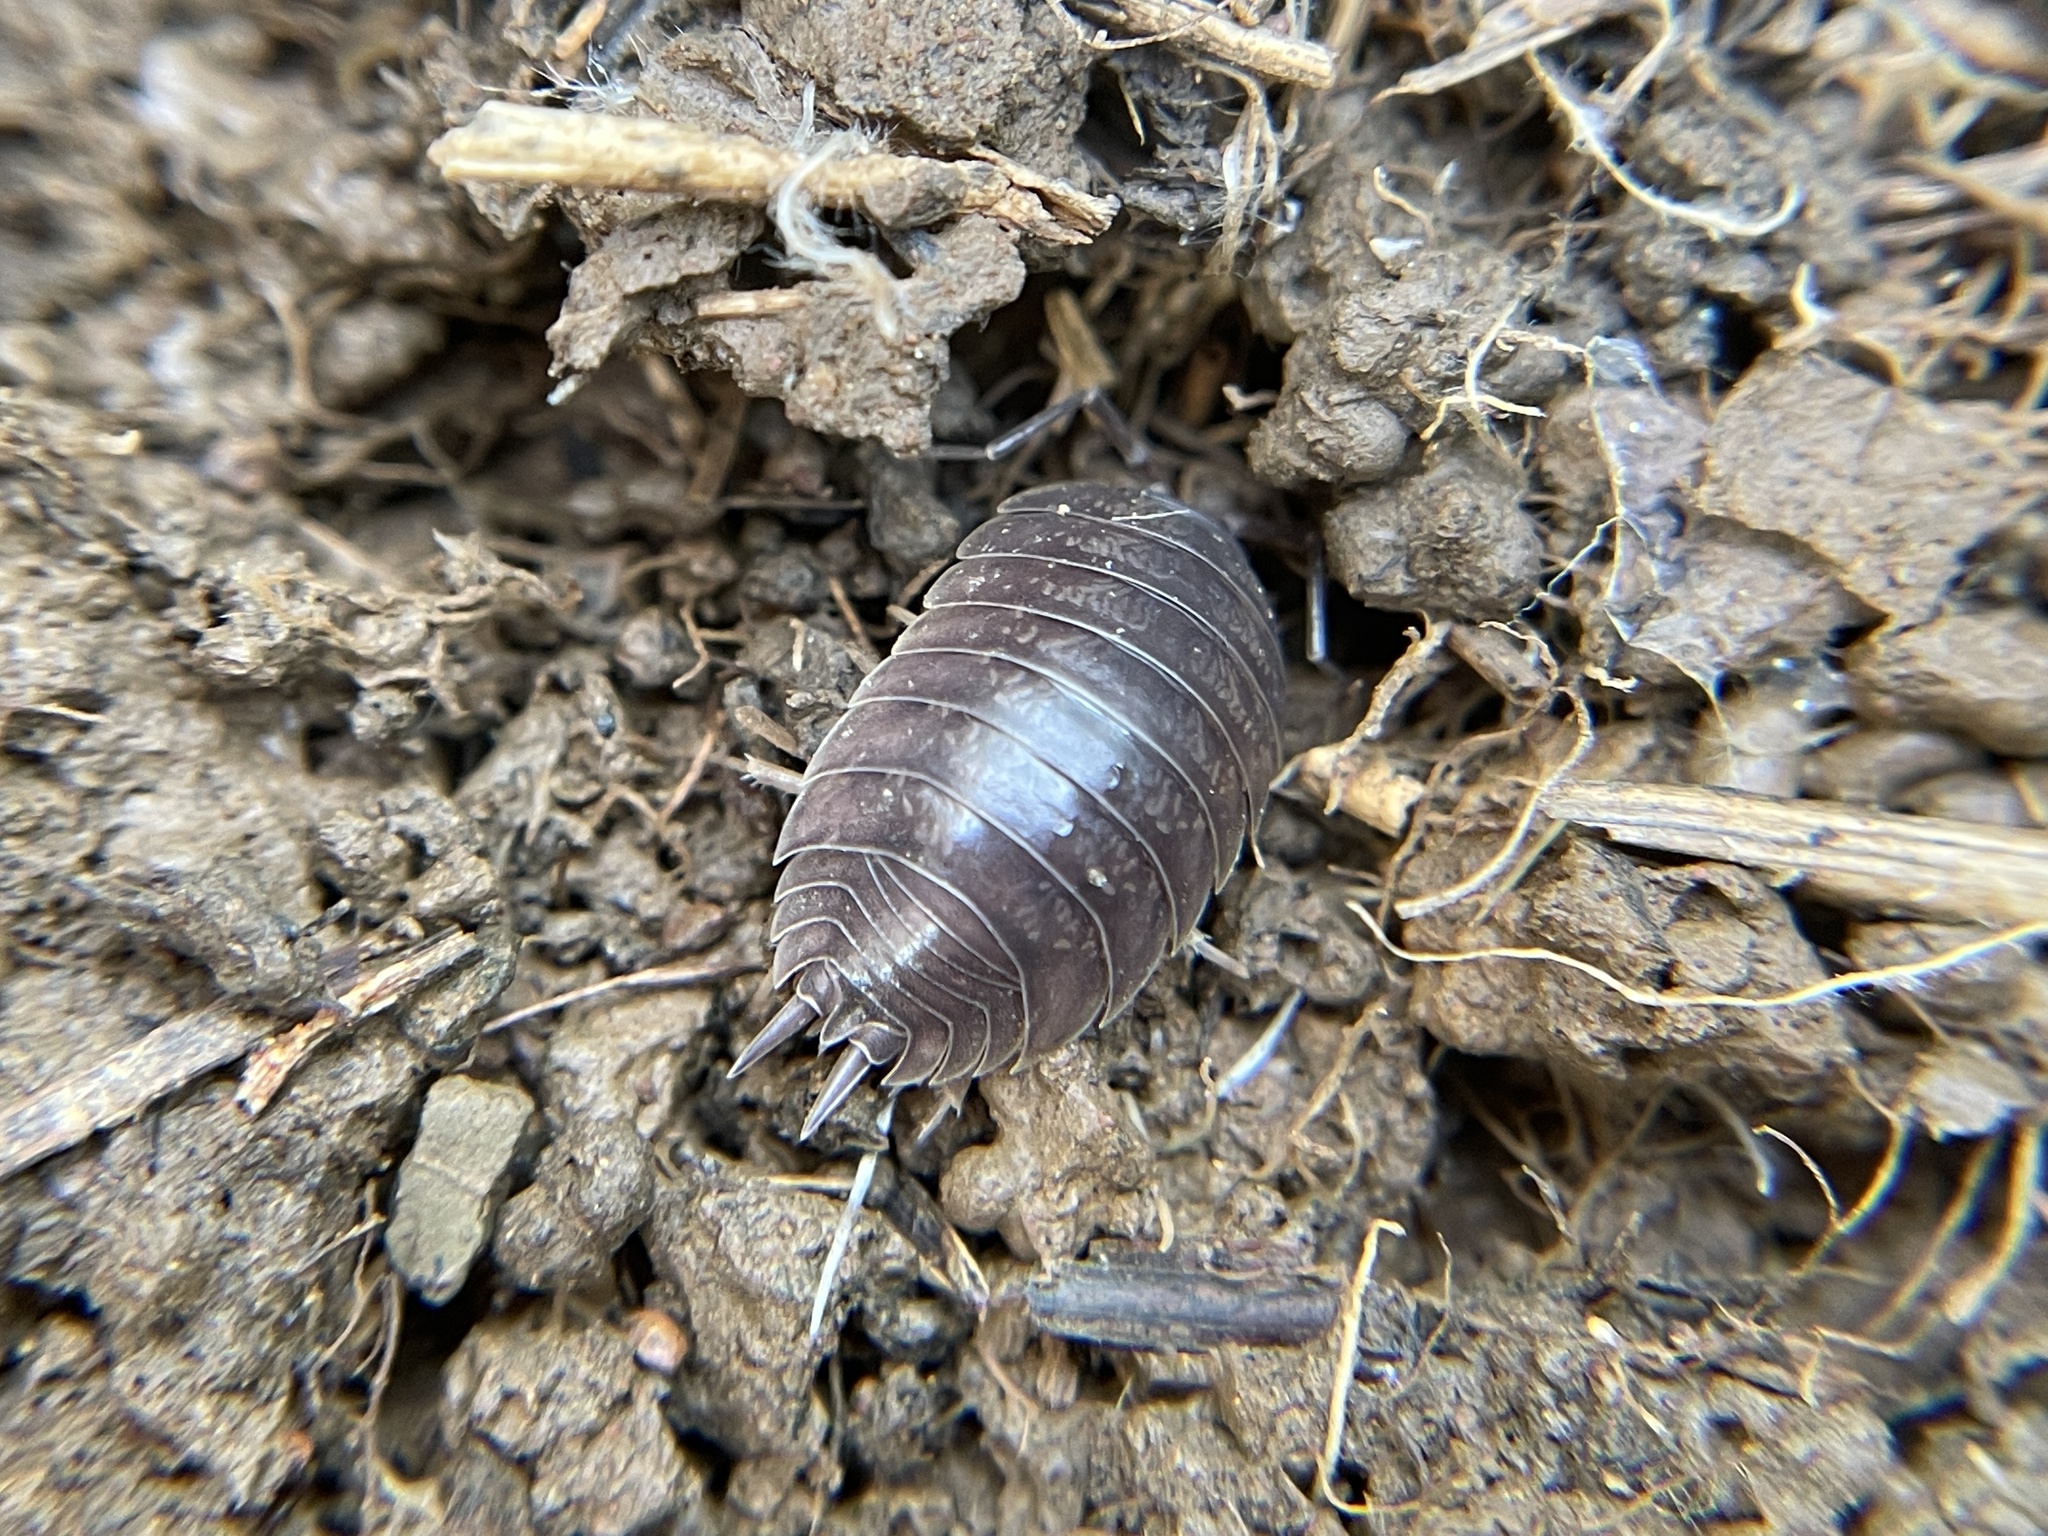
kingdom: Animalia
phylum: Arthropoda
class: Malacostraca
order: Isopoda
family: Porcellionidae
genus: Porcellio
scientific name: Porcellio laevis
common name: Swift woodlouse
